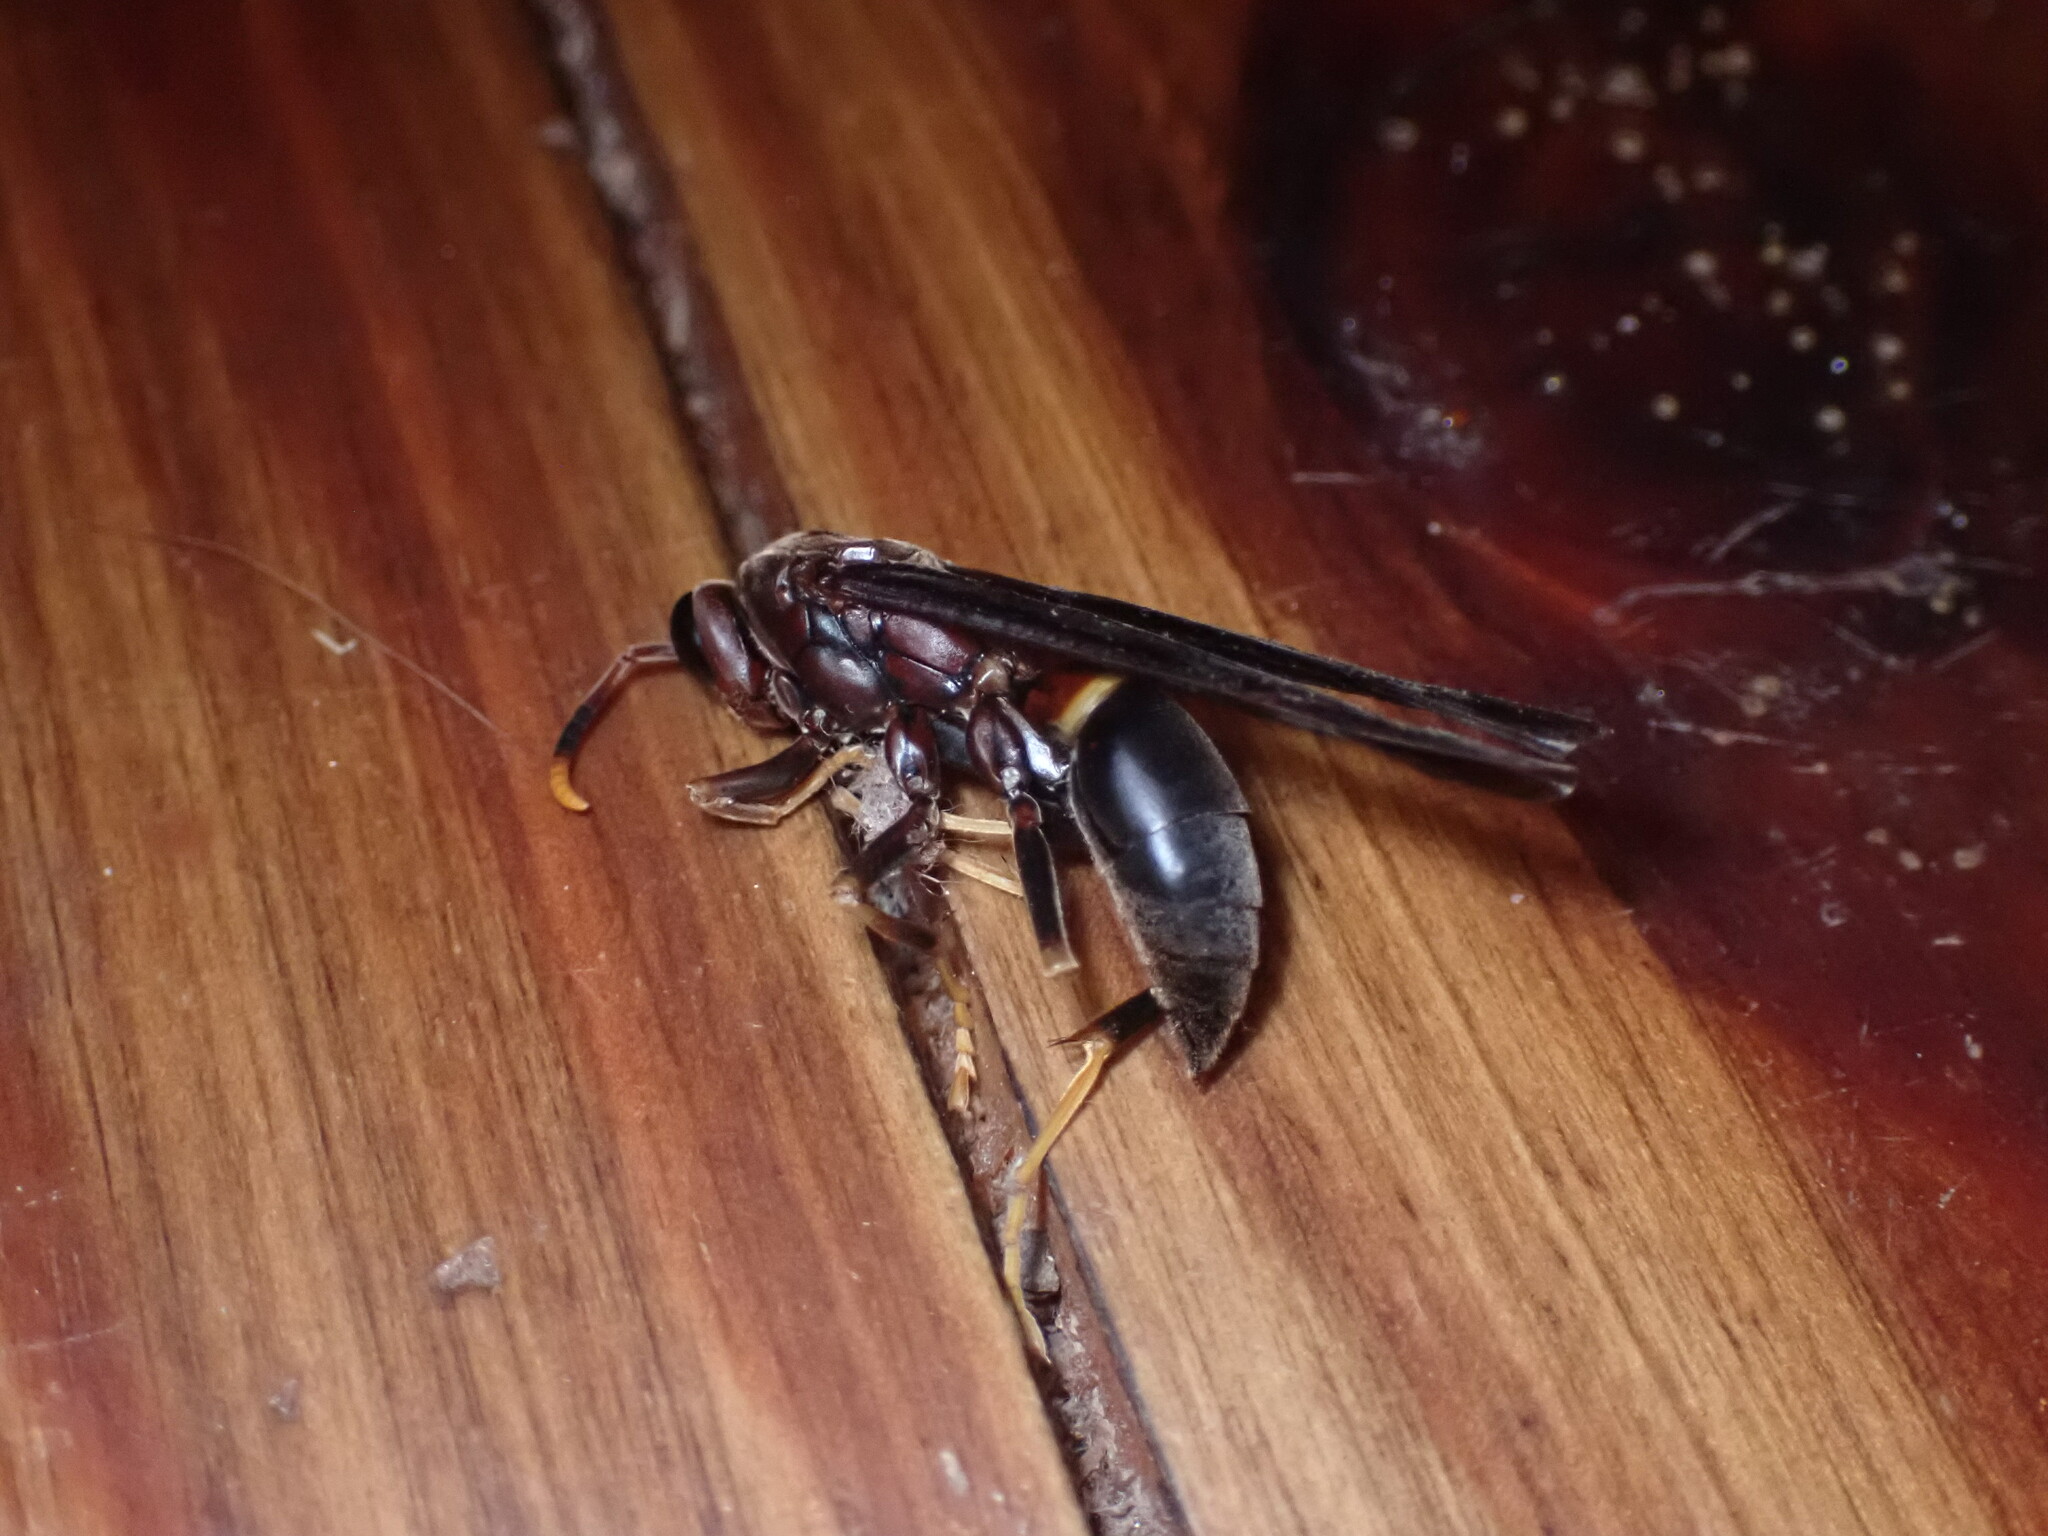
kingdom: Animalia
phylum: Arthropoda
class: Insecta
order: Hymenoptera
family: Eumenidae
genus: Polistes
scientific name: Polistes annularis
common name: Ringed paper wasp
